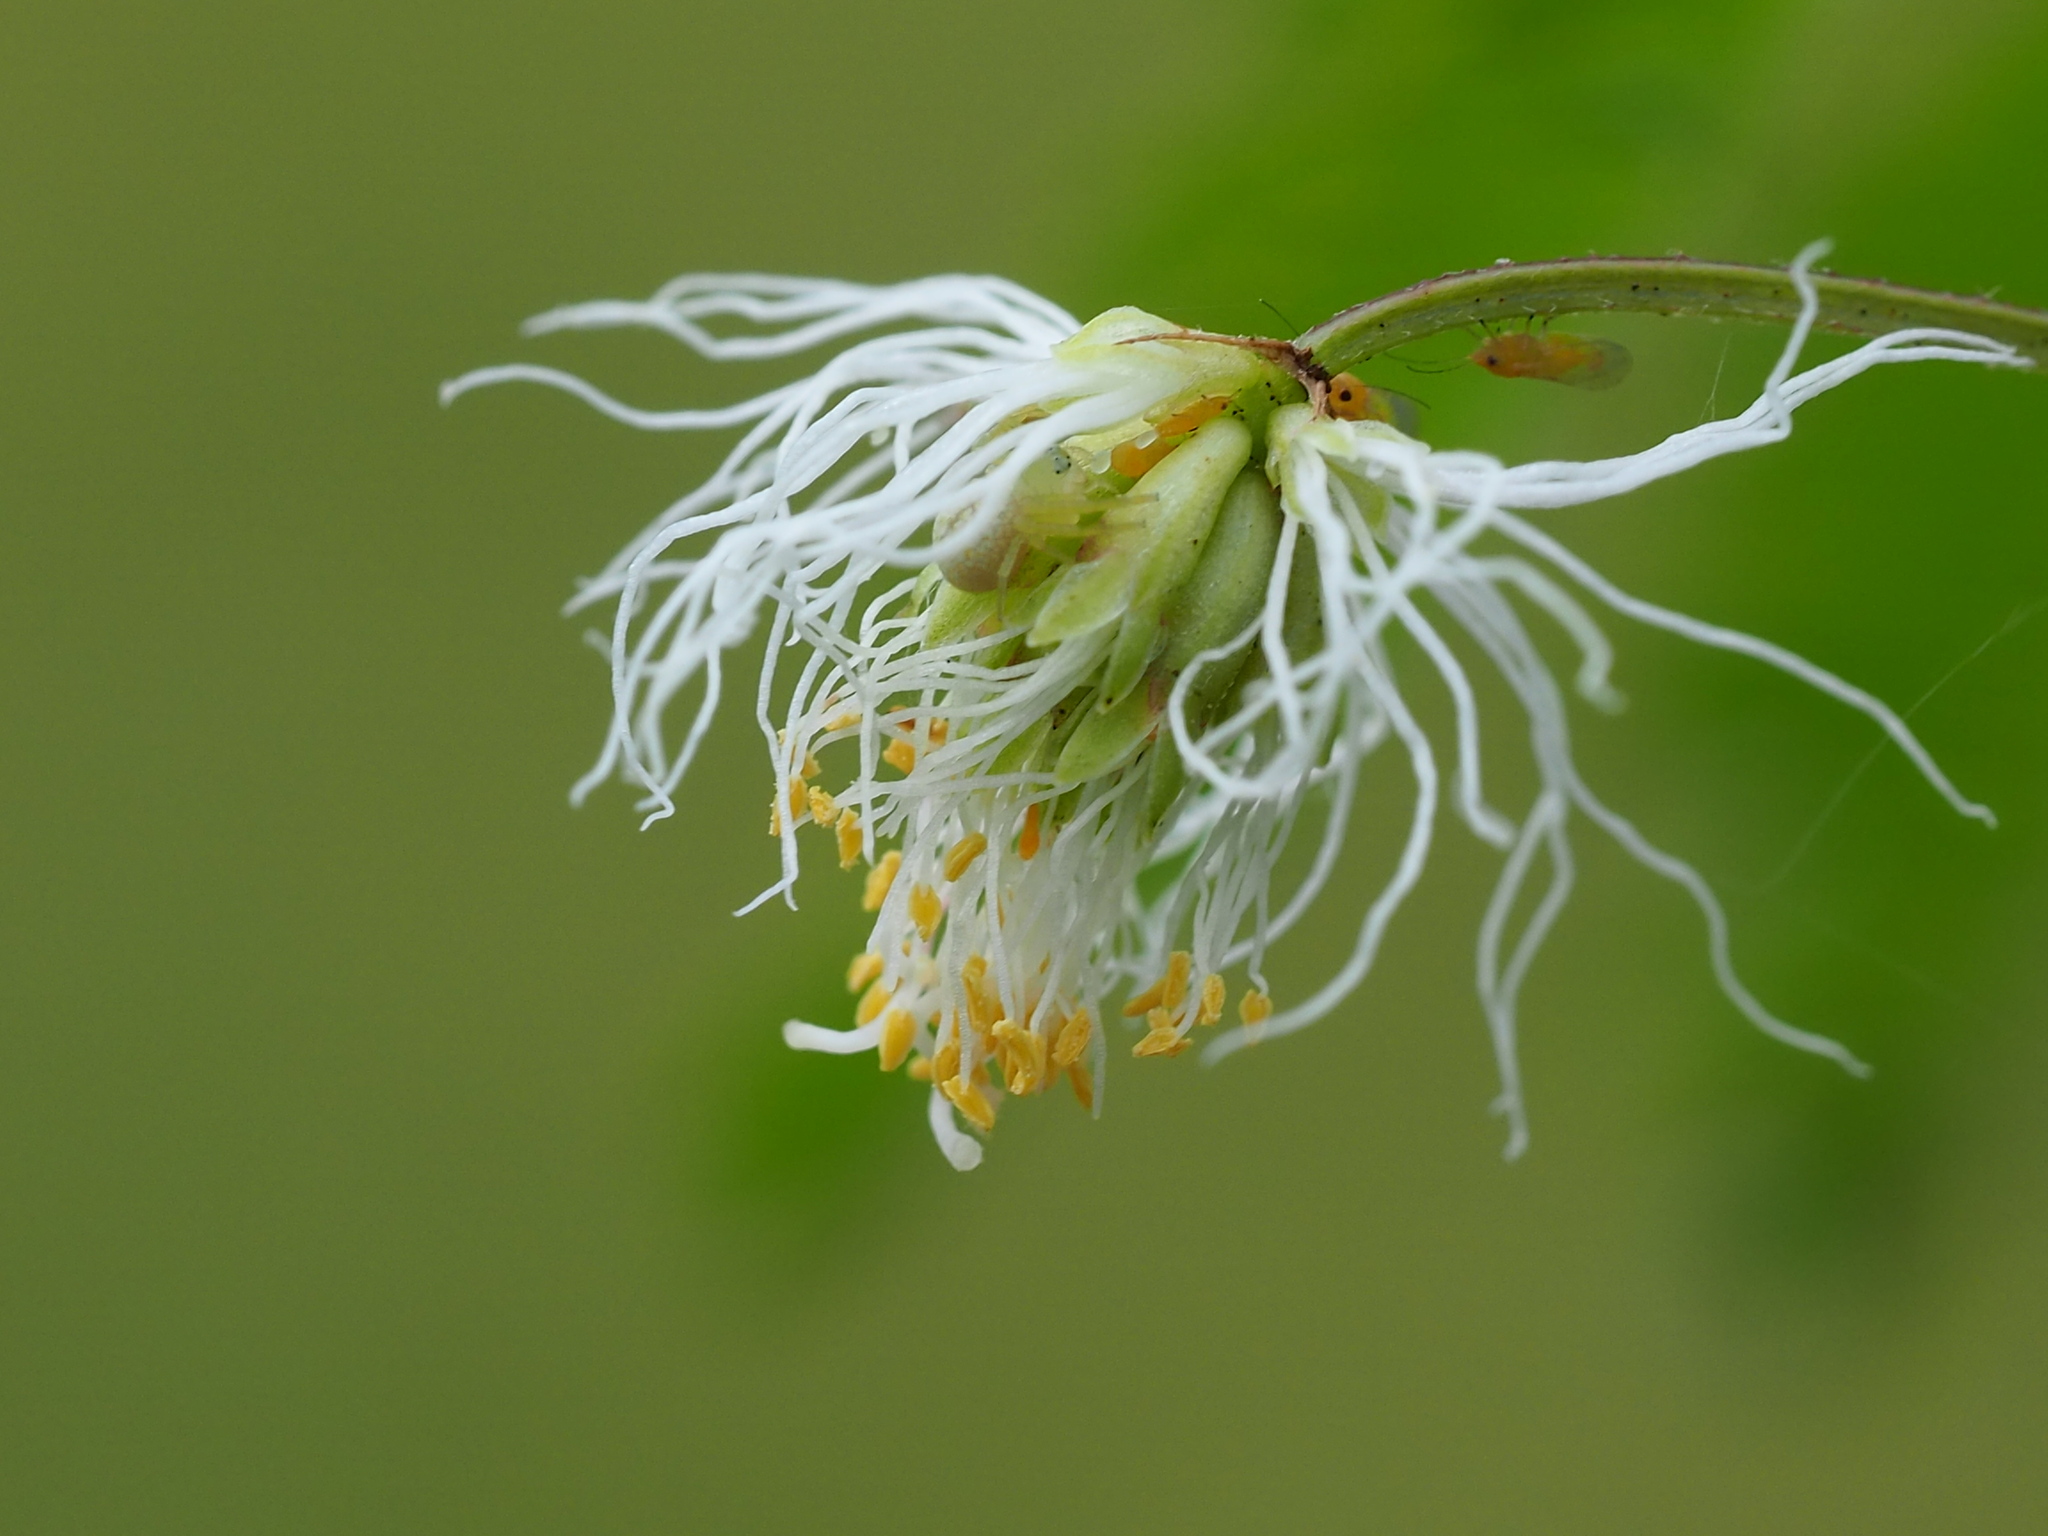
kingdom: Plantae
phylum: Tracheophyta
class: Magnoliopsida
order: Fabales
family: Fabaceae
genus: Desmanthus
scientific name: Desmanthus virgatus
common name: Wild tantan
